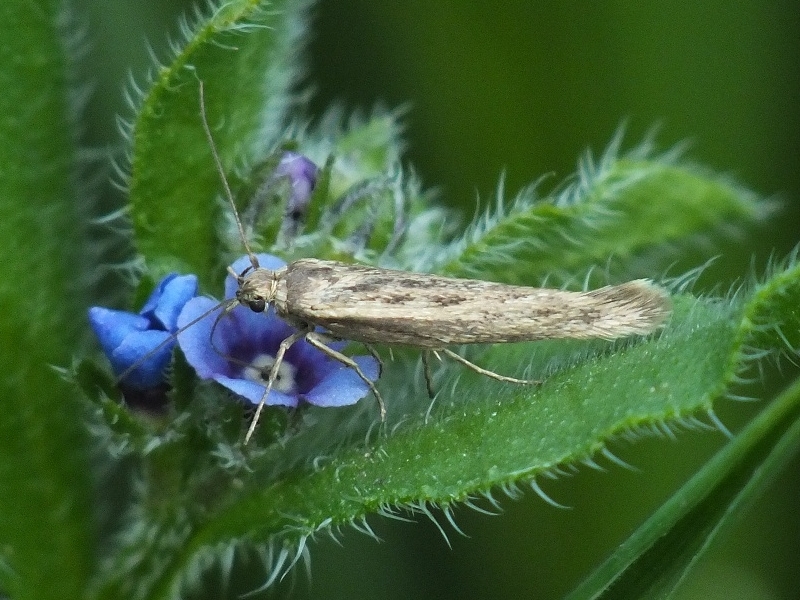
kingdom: Animalia
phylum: Arthropoda
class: Insecta
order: Lepidoptera
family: Scythrididae
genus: Scythris
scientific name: Scythris limbella
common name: Goosefoot owlet
